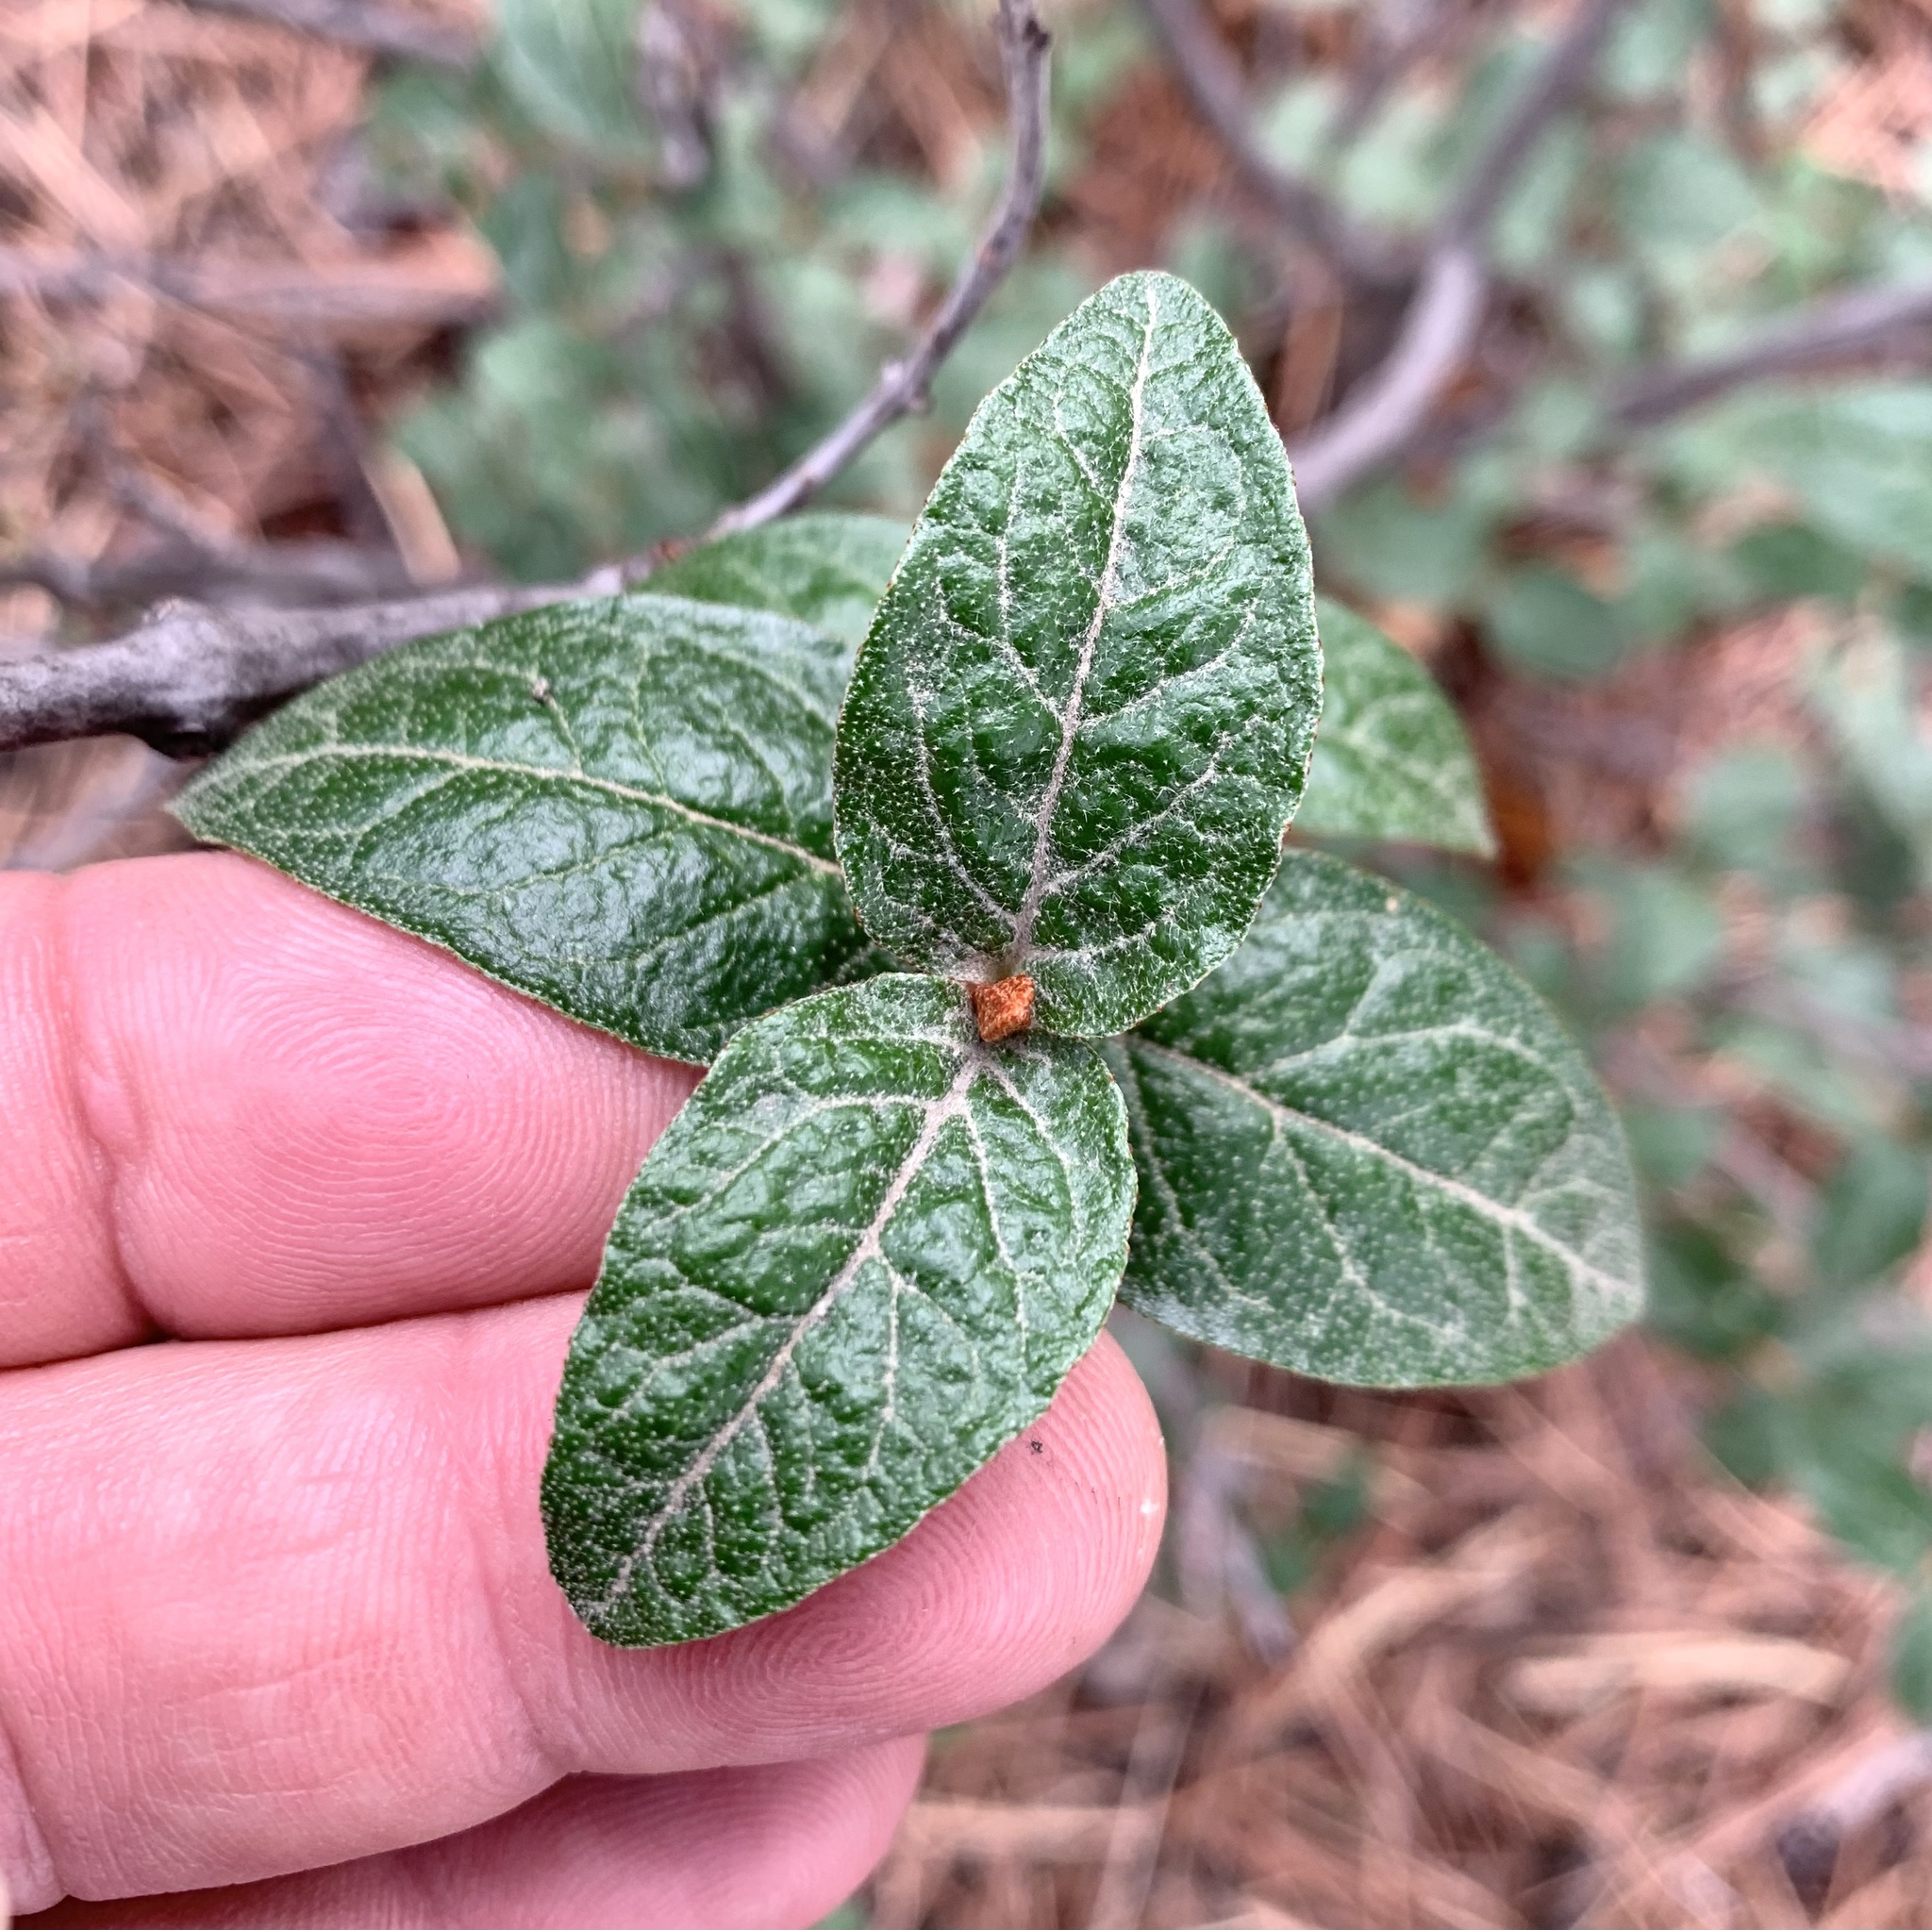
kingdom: Plantae
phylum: Tracheophyta
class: Magnoliopsida
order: Rosales
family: Elaeagnaceae
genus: Shepherdia
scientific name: Shepherdia canadensis
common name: Soapberry
